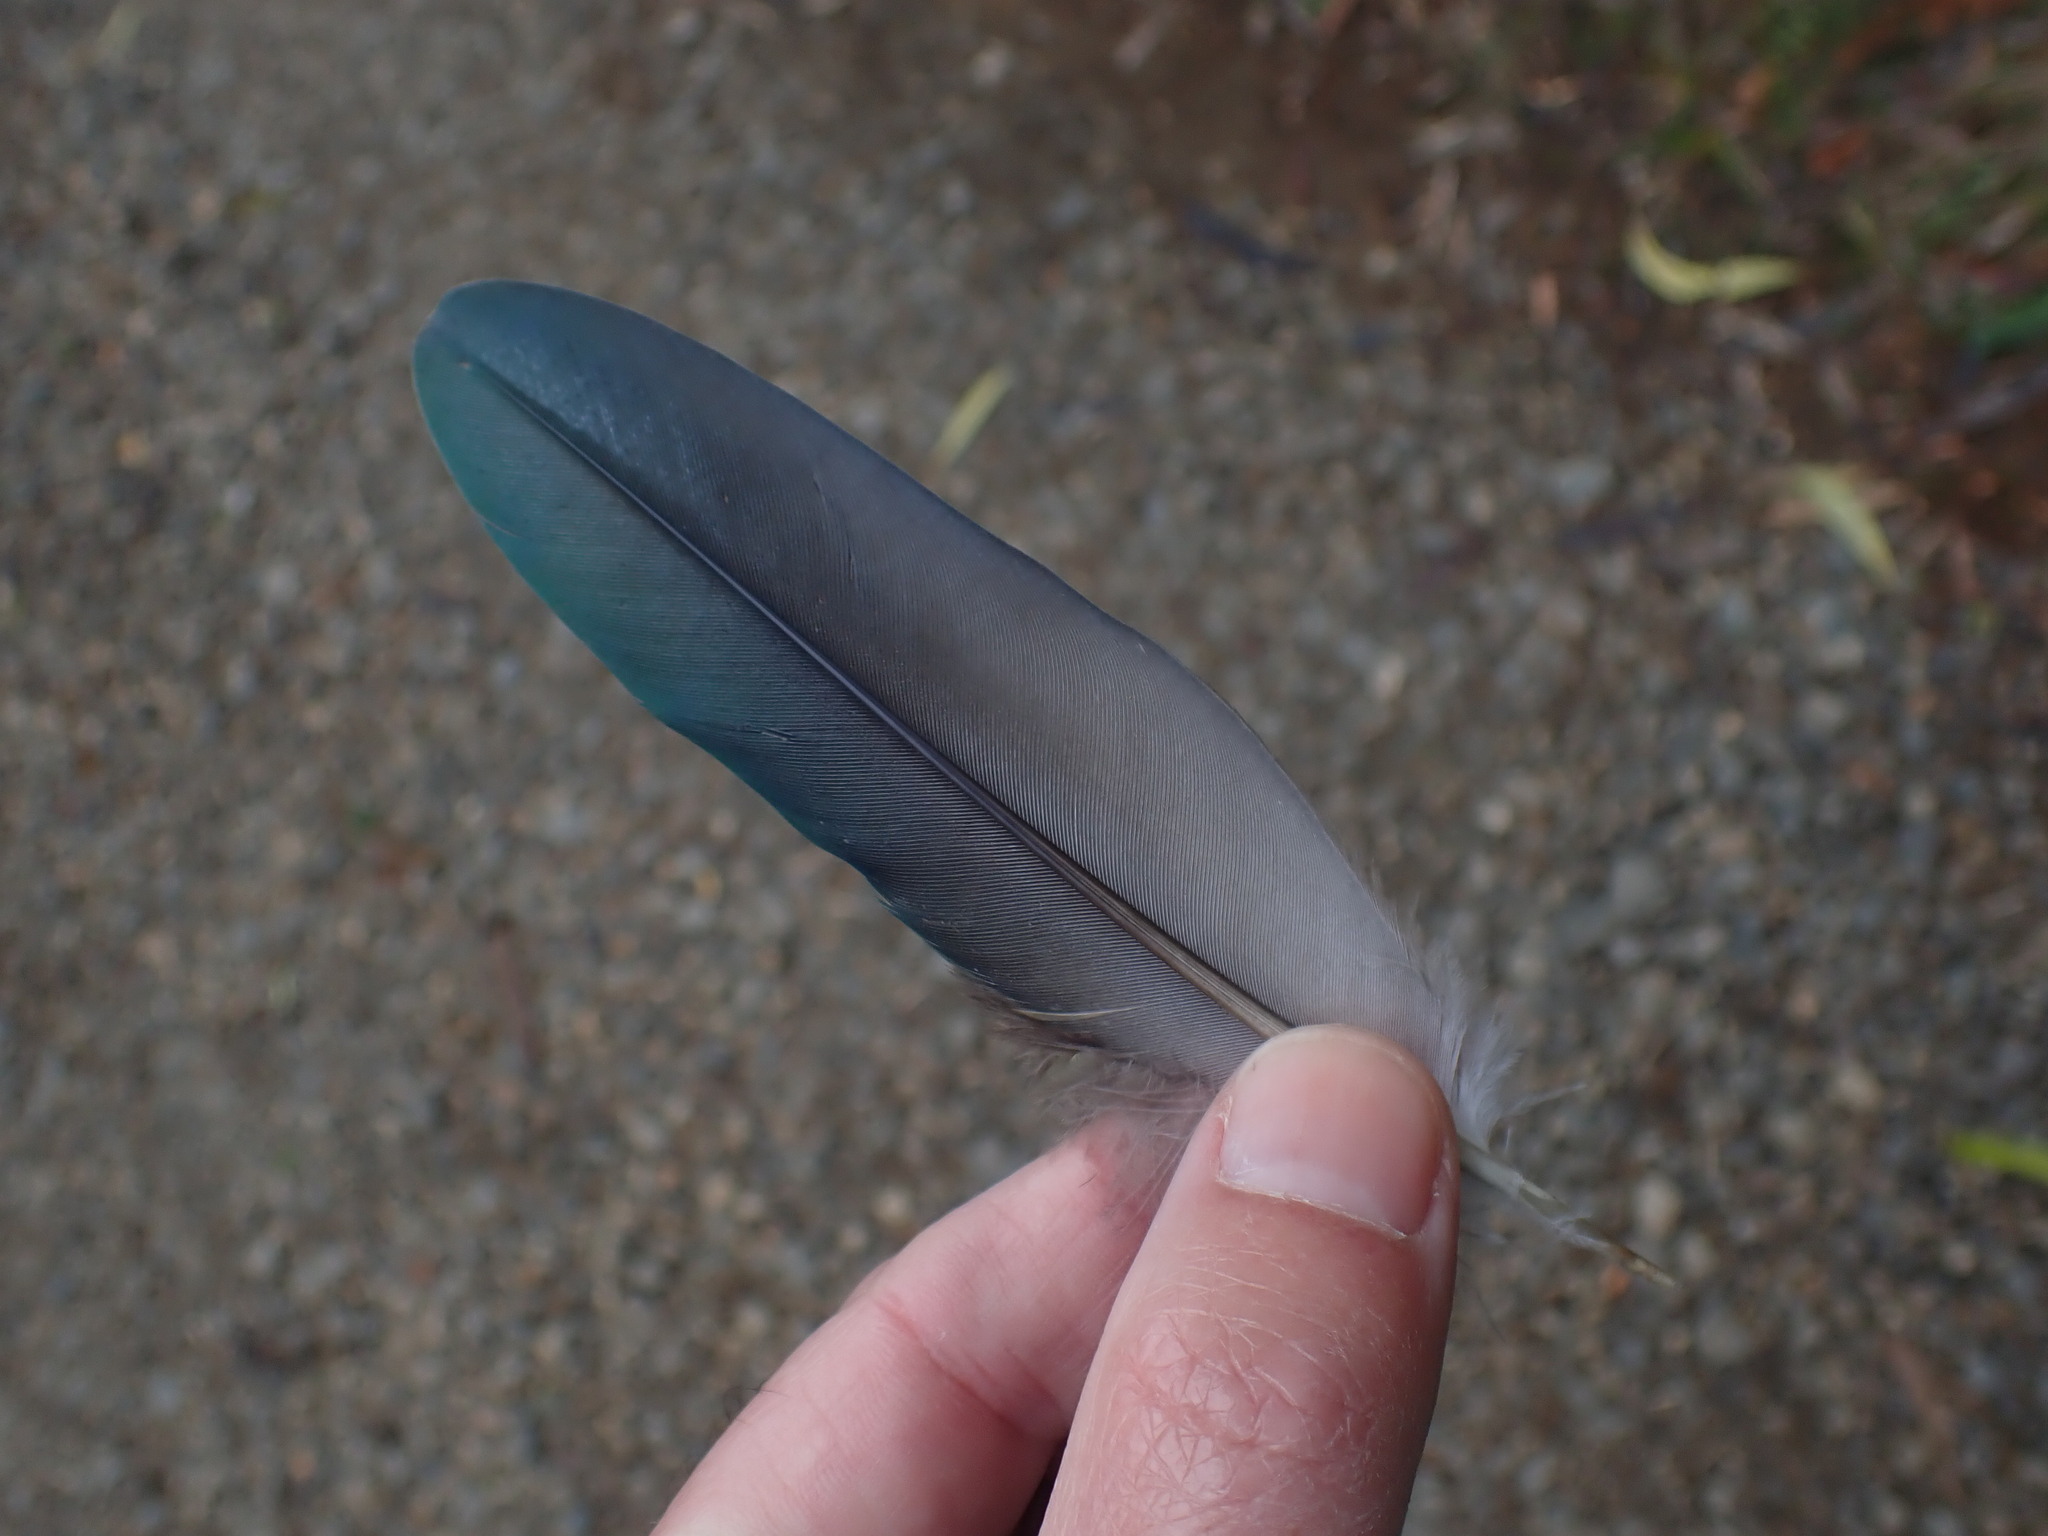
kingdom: Animalia
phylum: Chordata
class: Aves
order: Columbiformes
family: Columbidae
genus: Hemiphaga
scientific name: Hemiphaga novaeseelandiae
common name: New zealand pigeon
